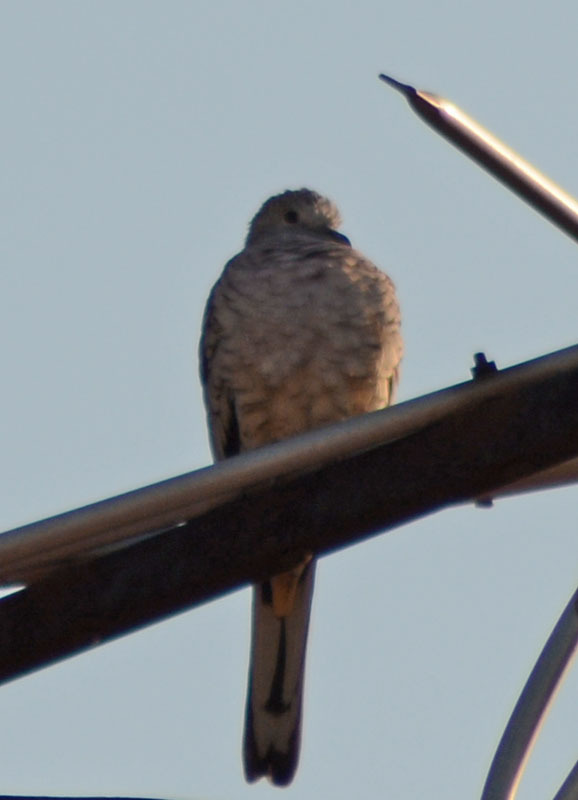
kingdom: Animalia
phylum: Chordata
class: Aves
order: Columbiformes
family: Columbidae
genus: Columbina
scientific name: Columbina inca
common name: Inca dove
